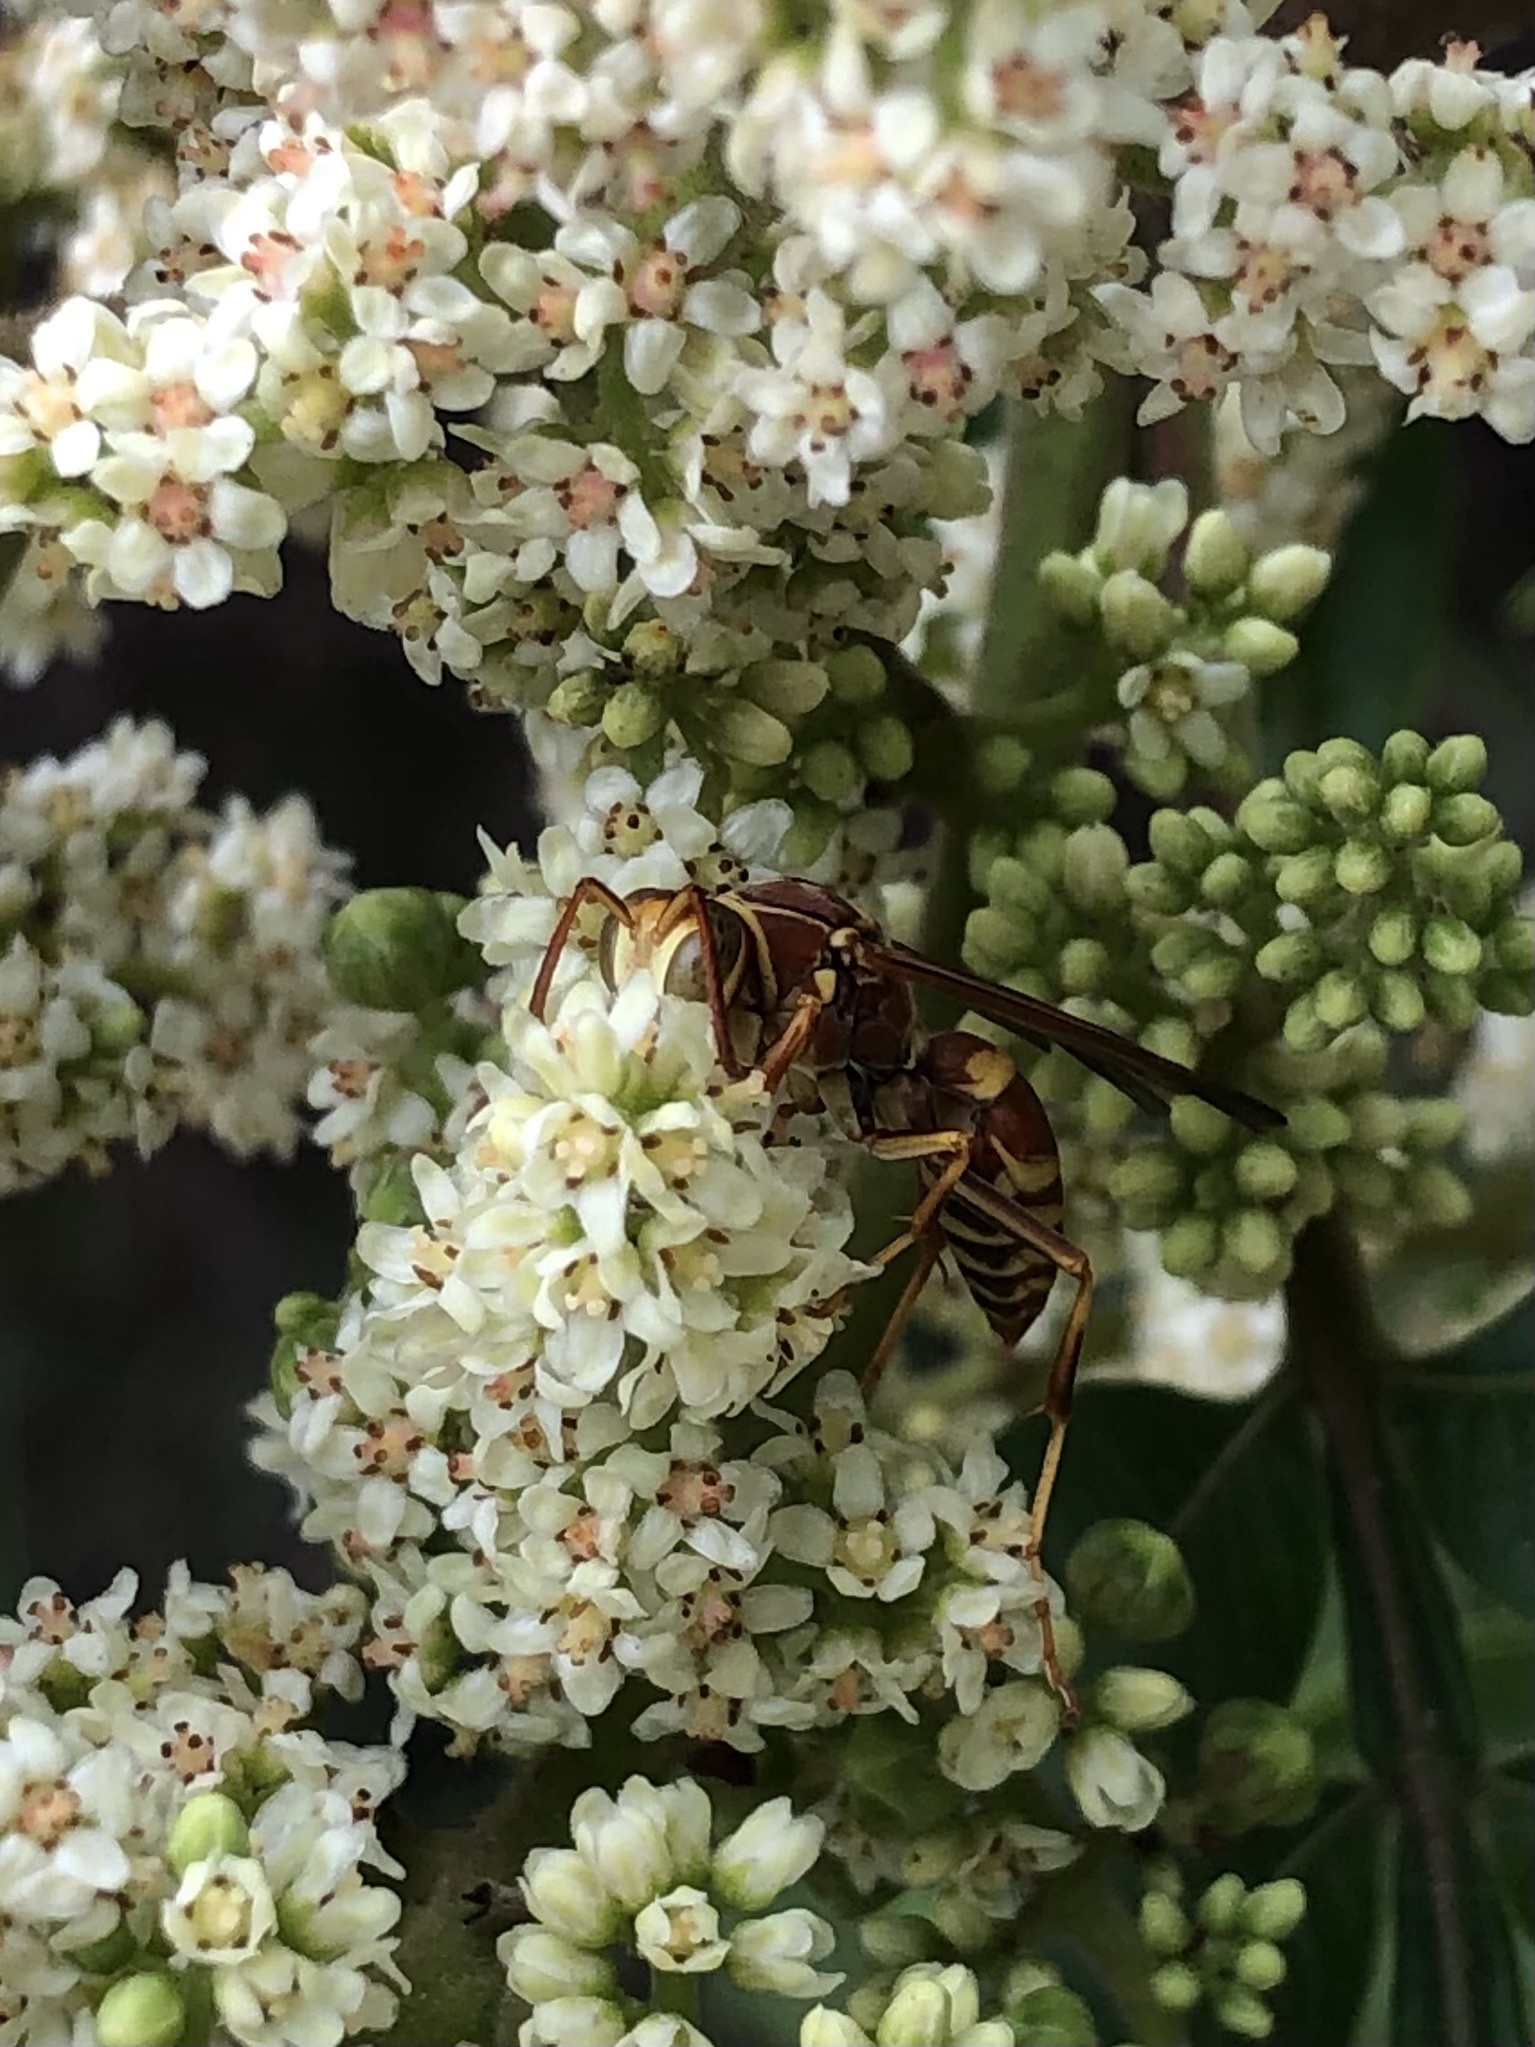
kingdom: Animalia
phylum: Arthropoda
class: Insecta
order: Hymenoptera
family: Eumenidae
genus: Polistes
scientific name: Polistes dorsalis
